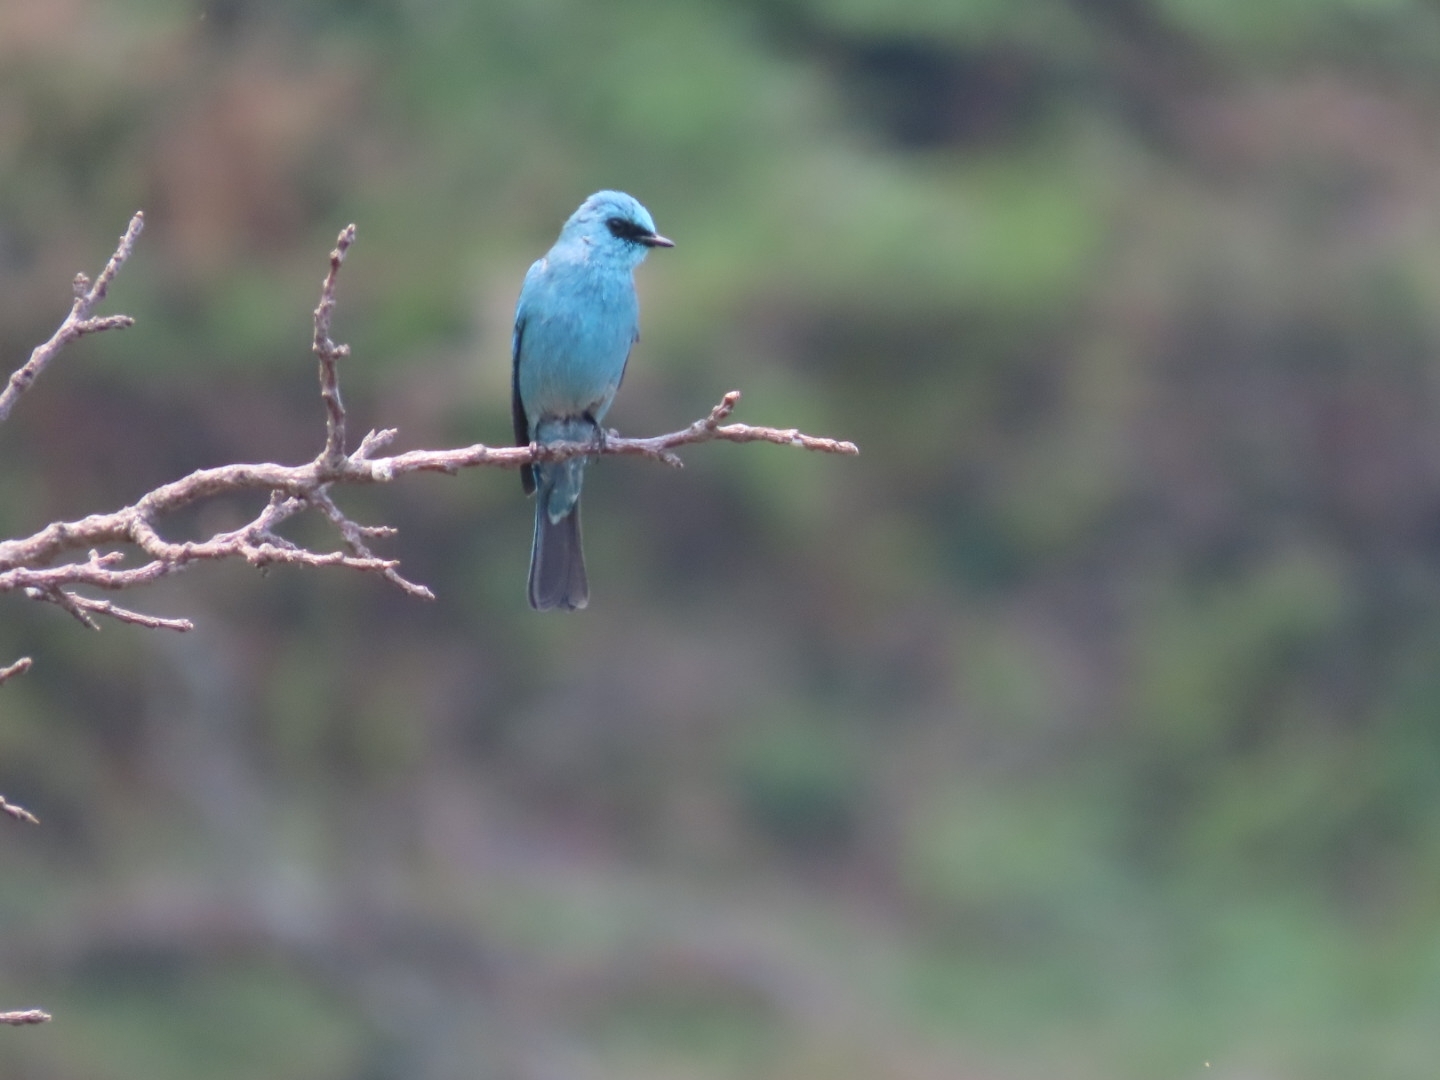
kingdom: Animalia
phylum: Chordata
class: Aves
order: Passeriformes
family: Muscicapidae
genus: Eumyias
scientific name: Eumyias thalassinus
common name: Verditer flycatcher
